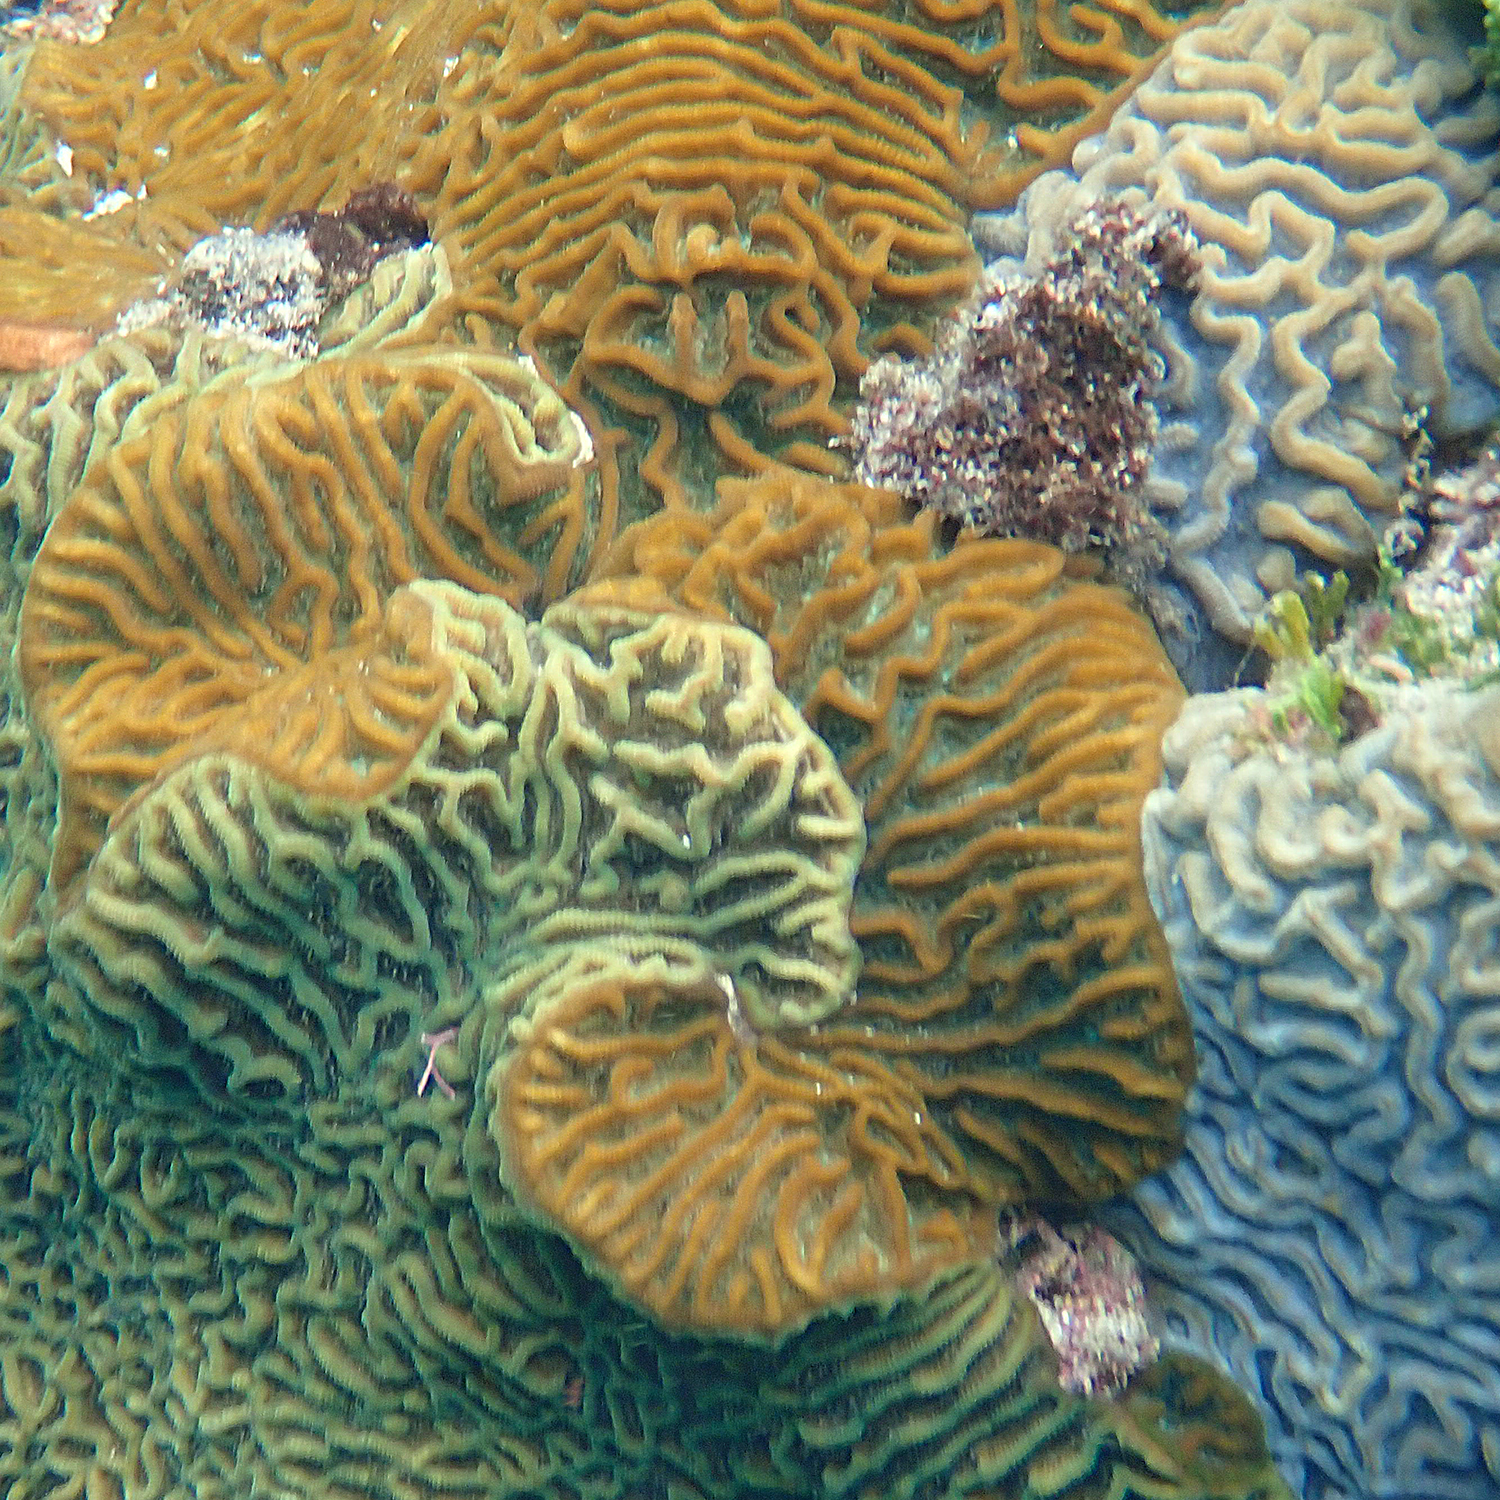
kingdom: Animalia
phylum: Cnidaria
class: Anthozoa
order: Scleractinia
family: Merulinidae
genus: Paragoniastrea
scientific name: Paragoniastrea australensis
